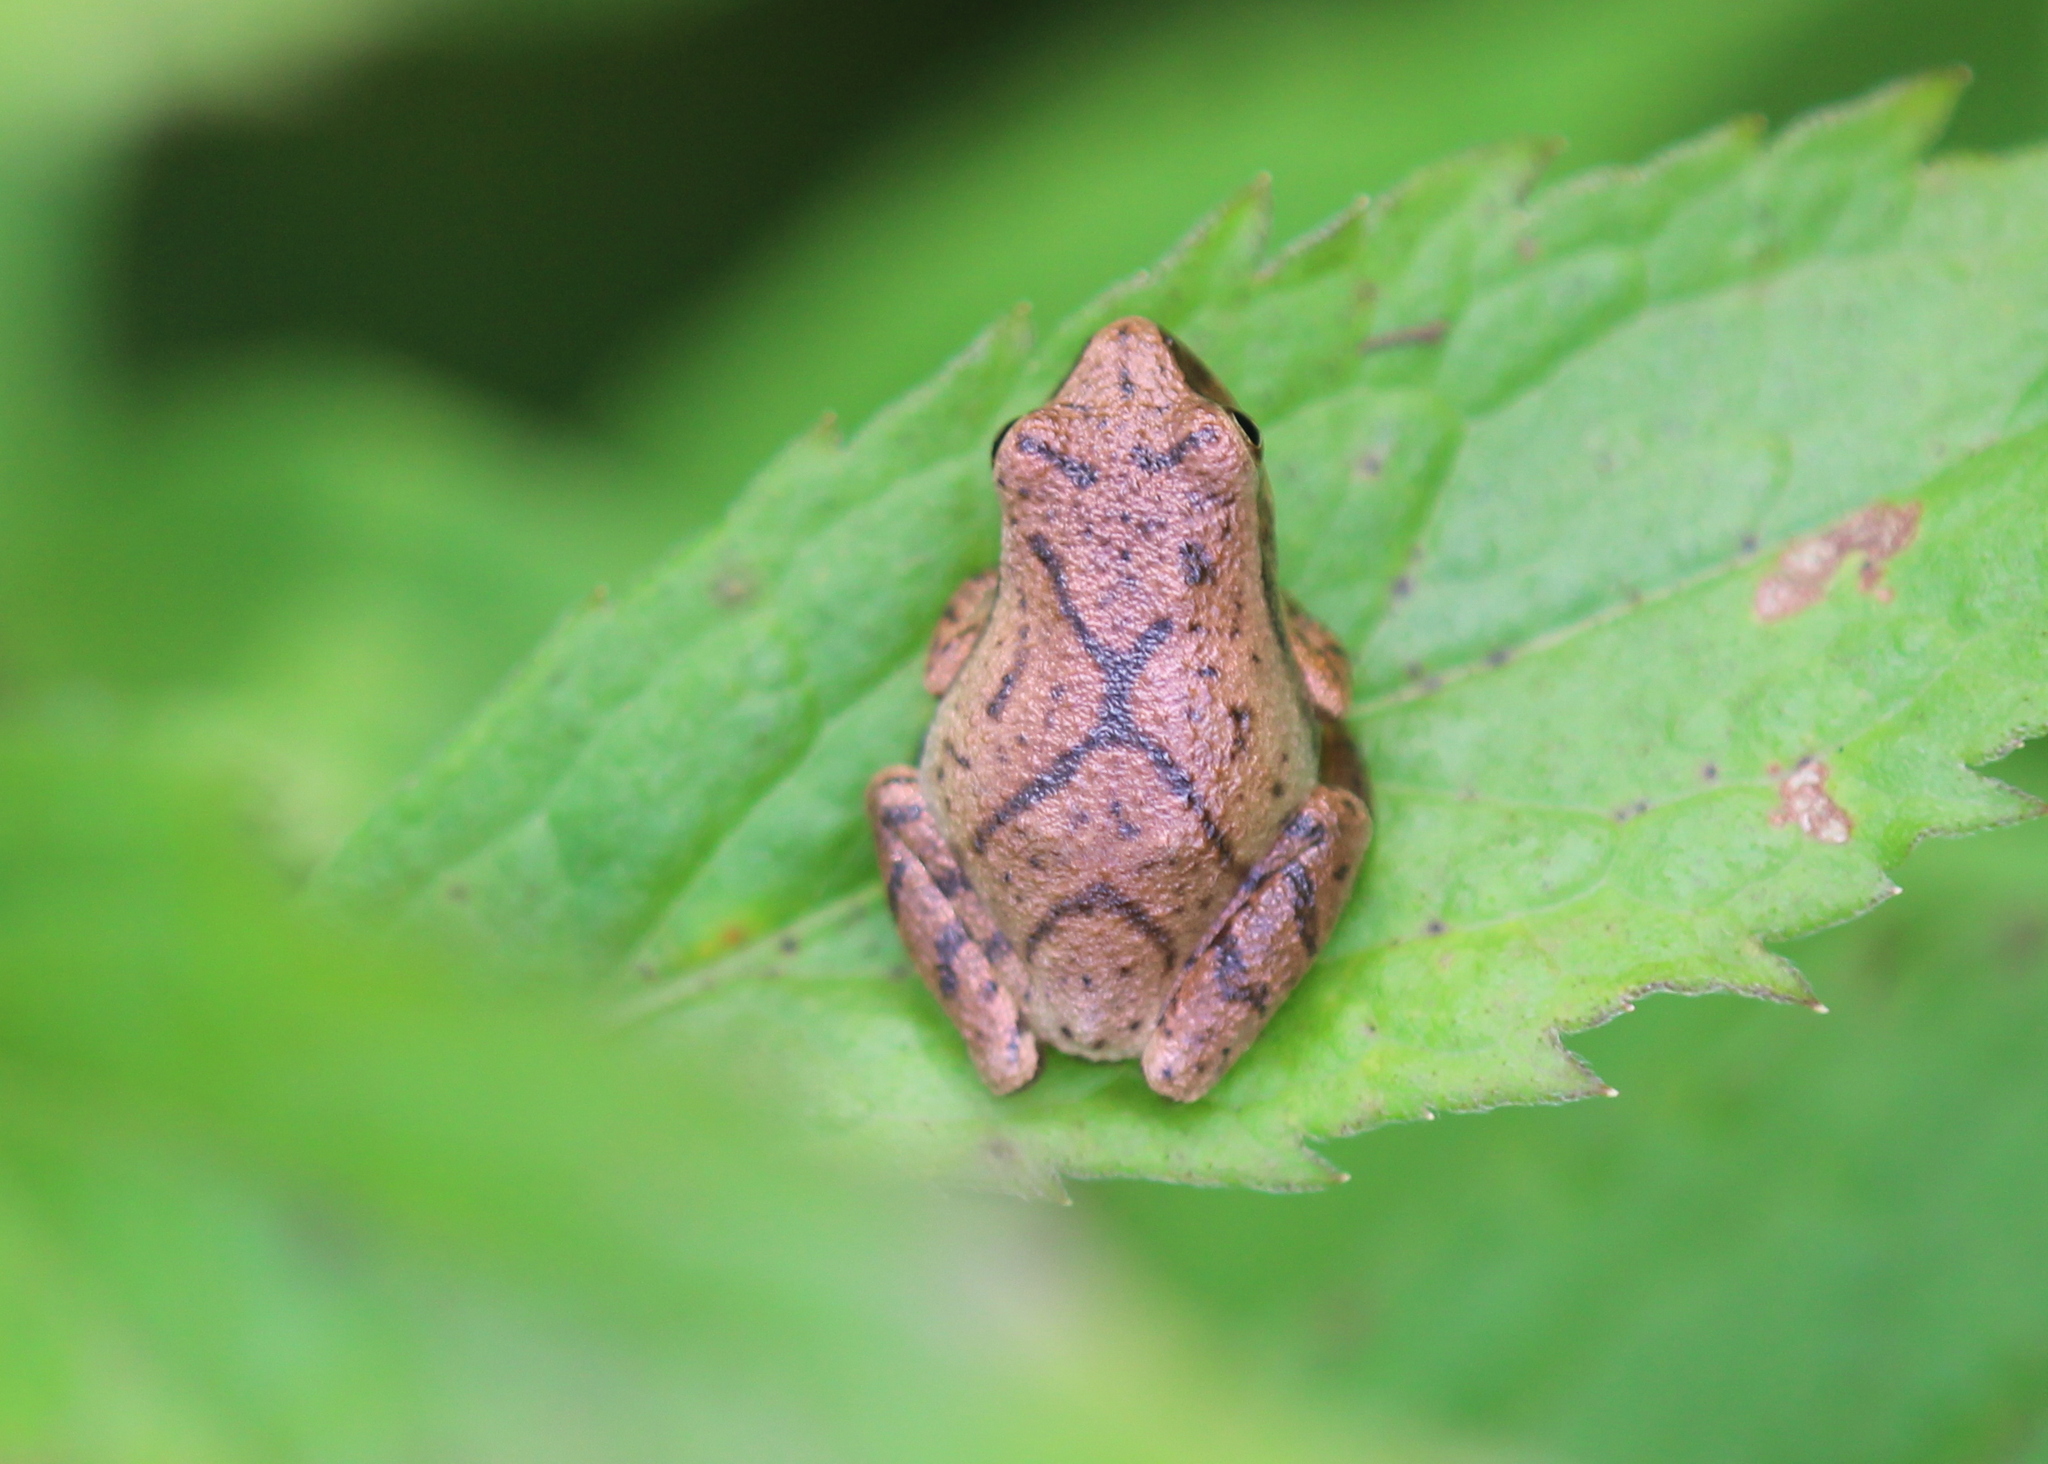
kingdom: Animalia
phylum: Chordata
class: Amphibia
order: Anura
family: Hylidae
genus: Pseudacris
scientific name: Pseudacris crucifer
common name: Spring peeper
